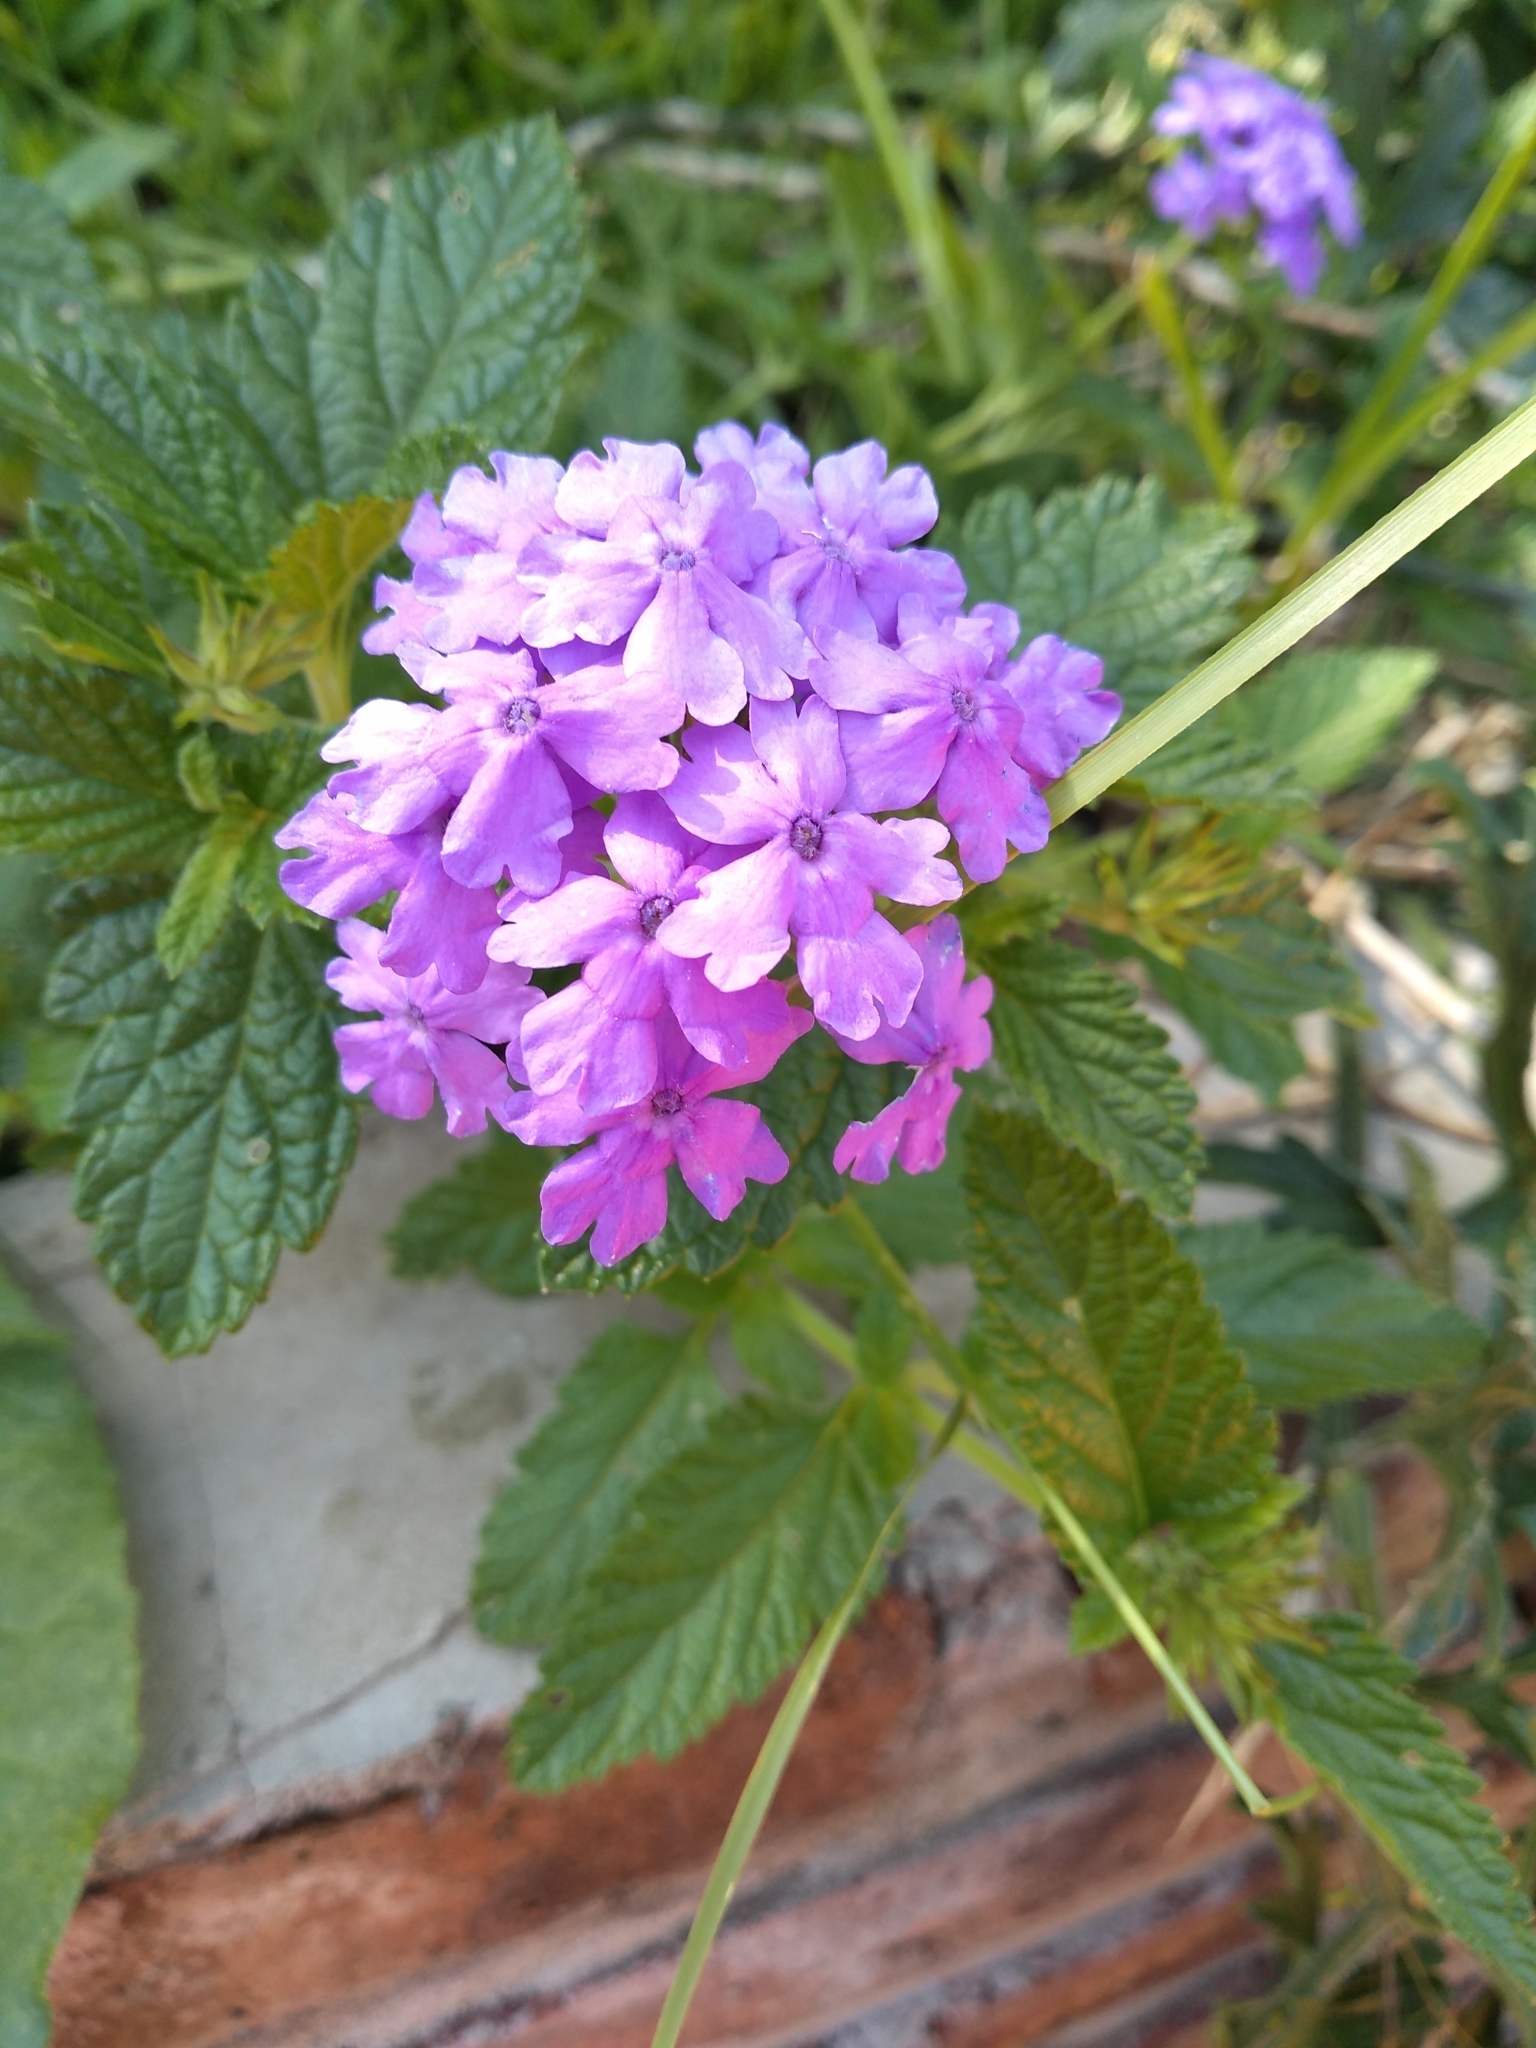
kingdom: Plantae
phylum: Tracheophyta
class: Magnoliopsida
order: Lamiales
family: Verbenaceae
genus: Verbena
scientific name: Verbena guaranitica
